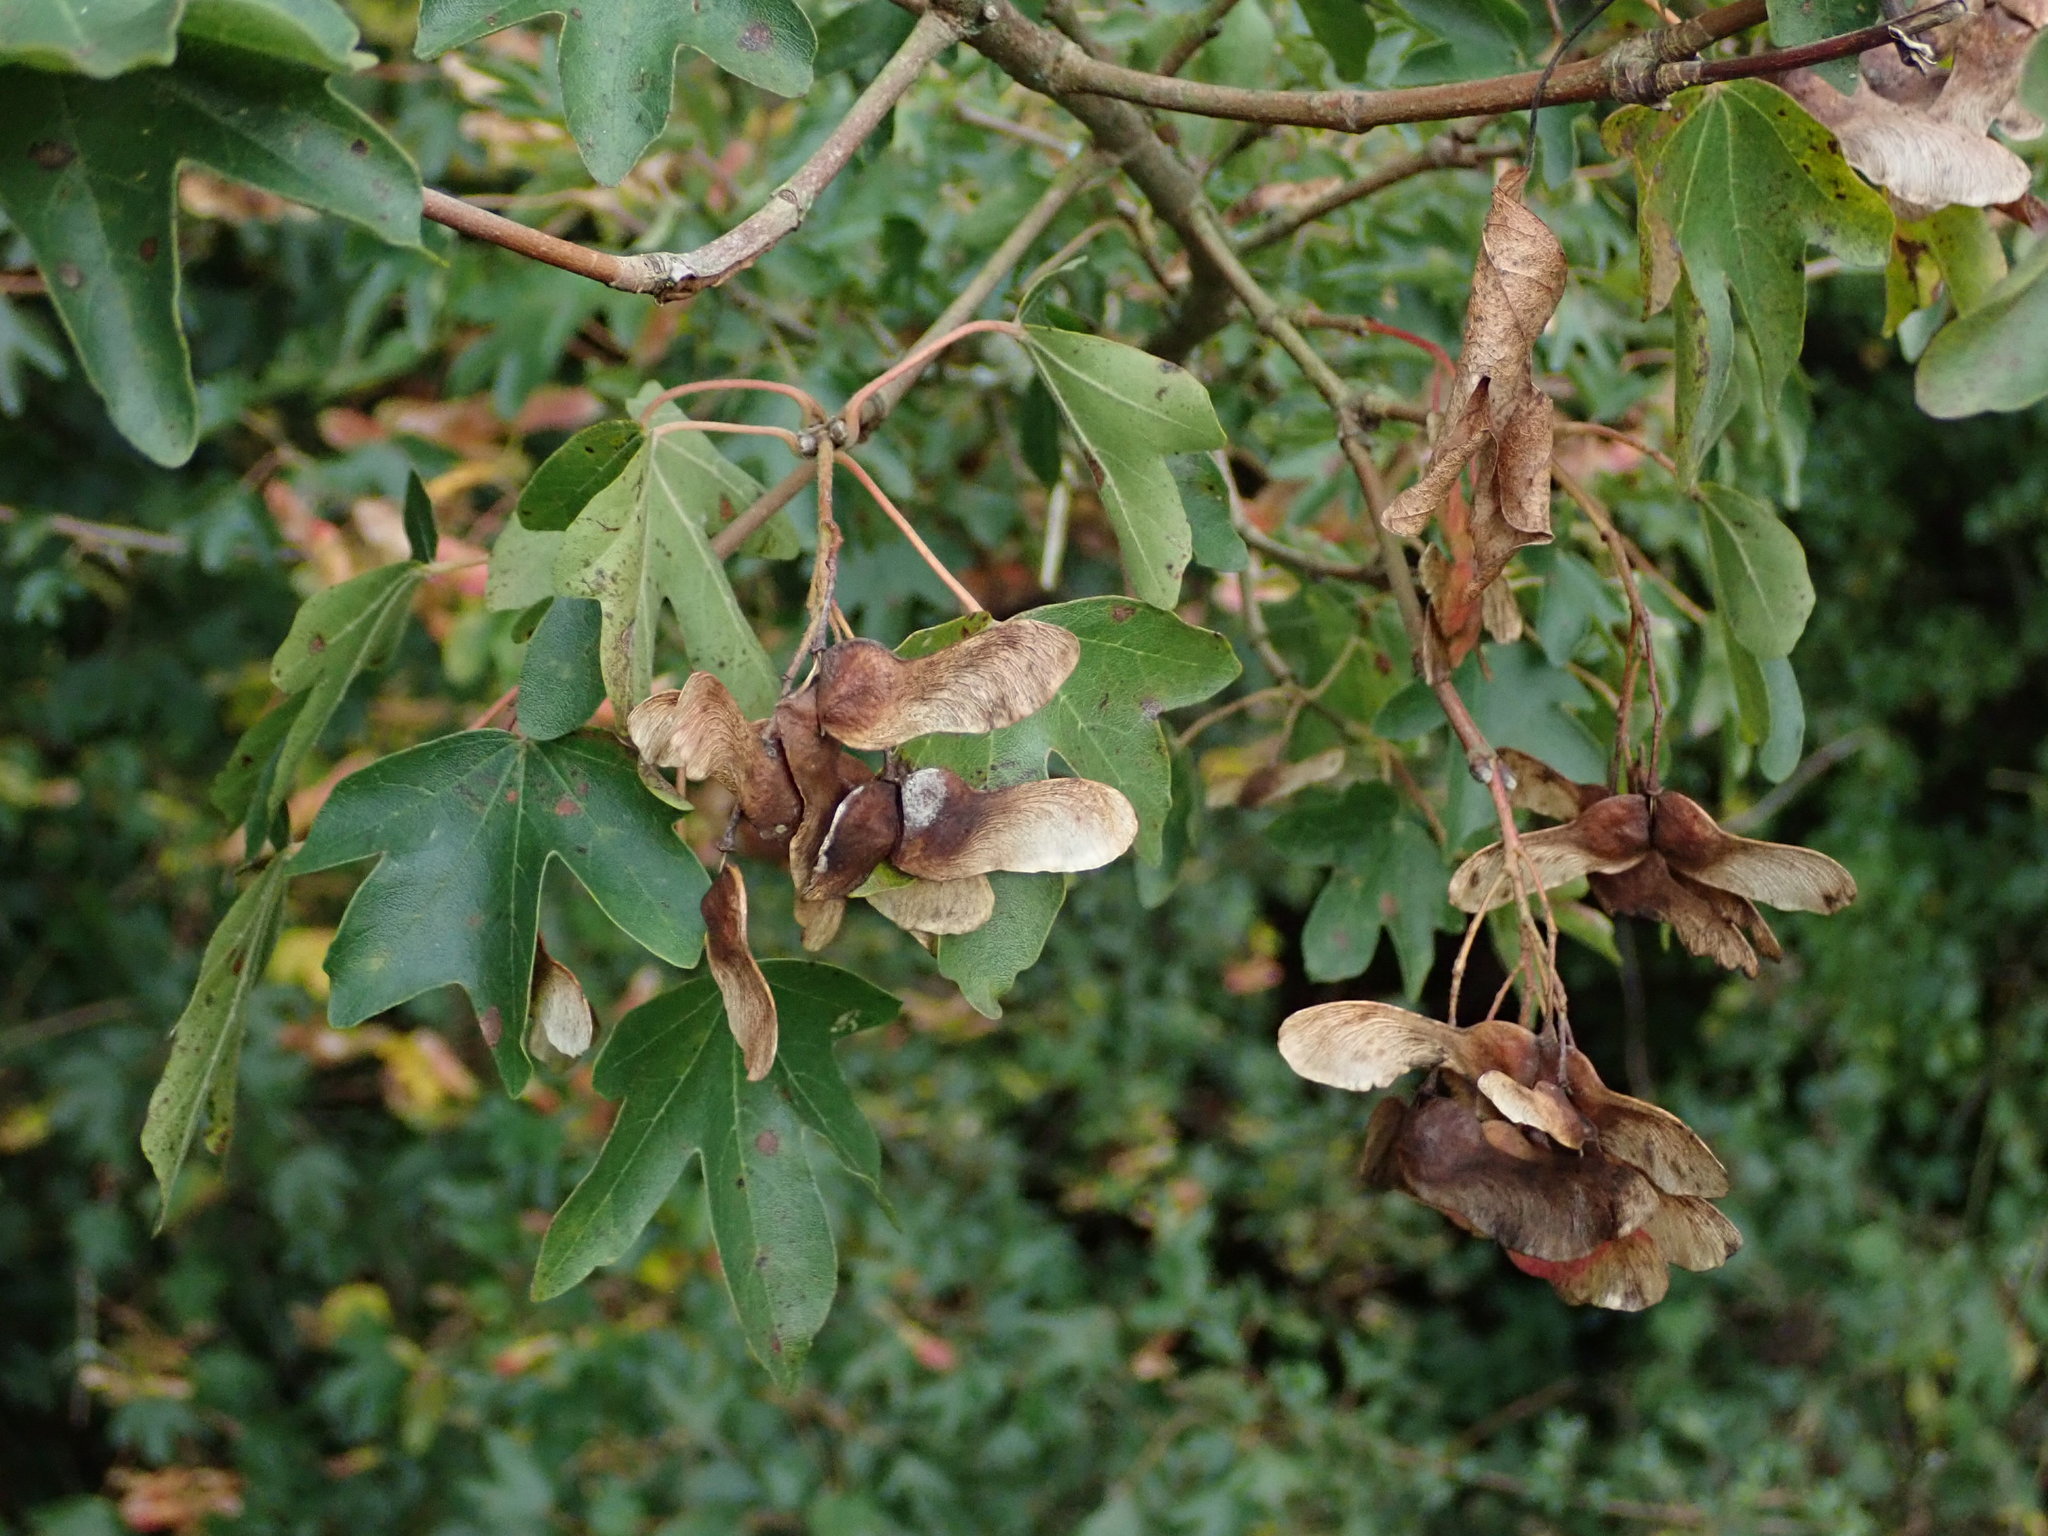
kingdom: Plantae
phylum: Tracheophyta
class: Magnoliopsida
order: Sapindales
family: Sapindaceae
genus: Acer
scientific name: Acer campestre
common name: Field maple
